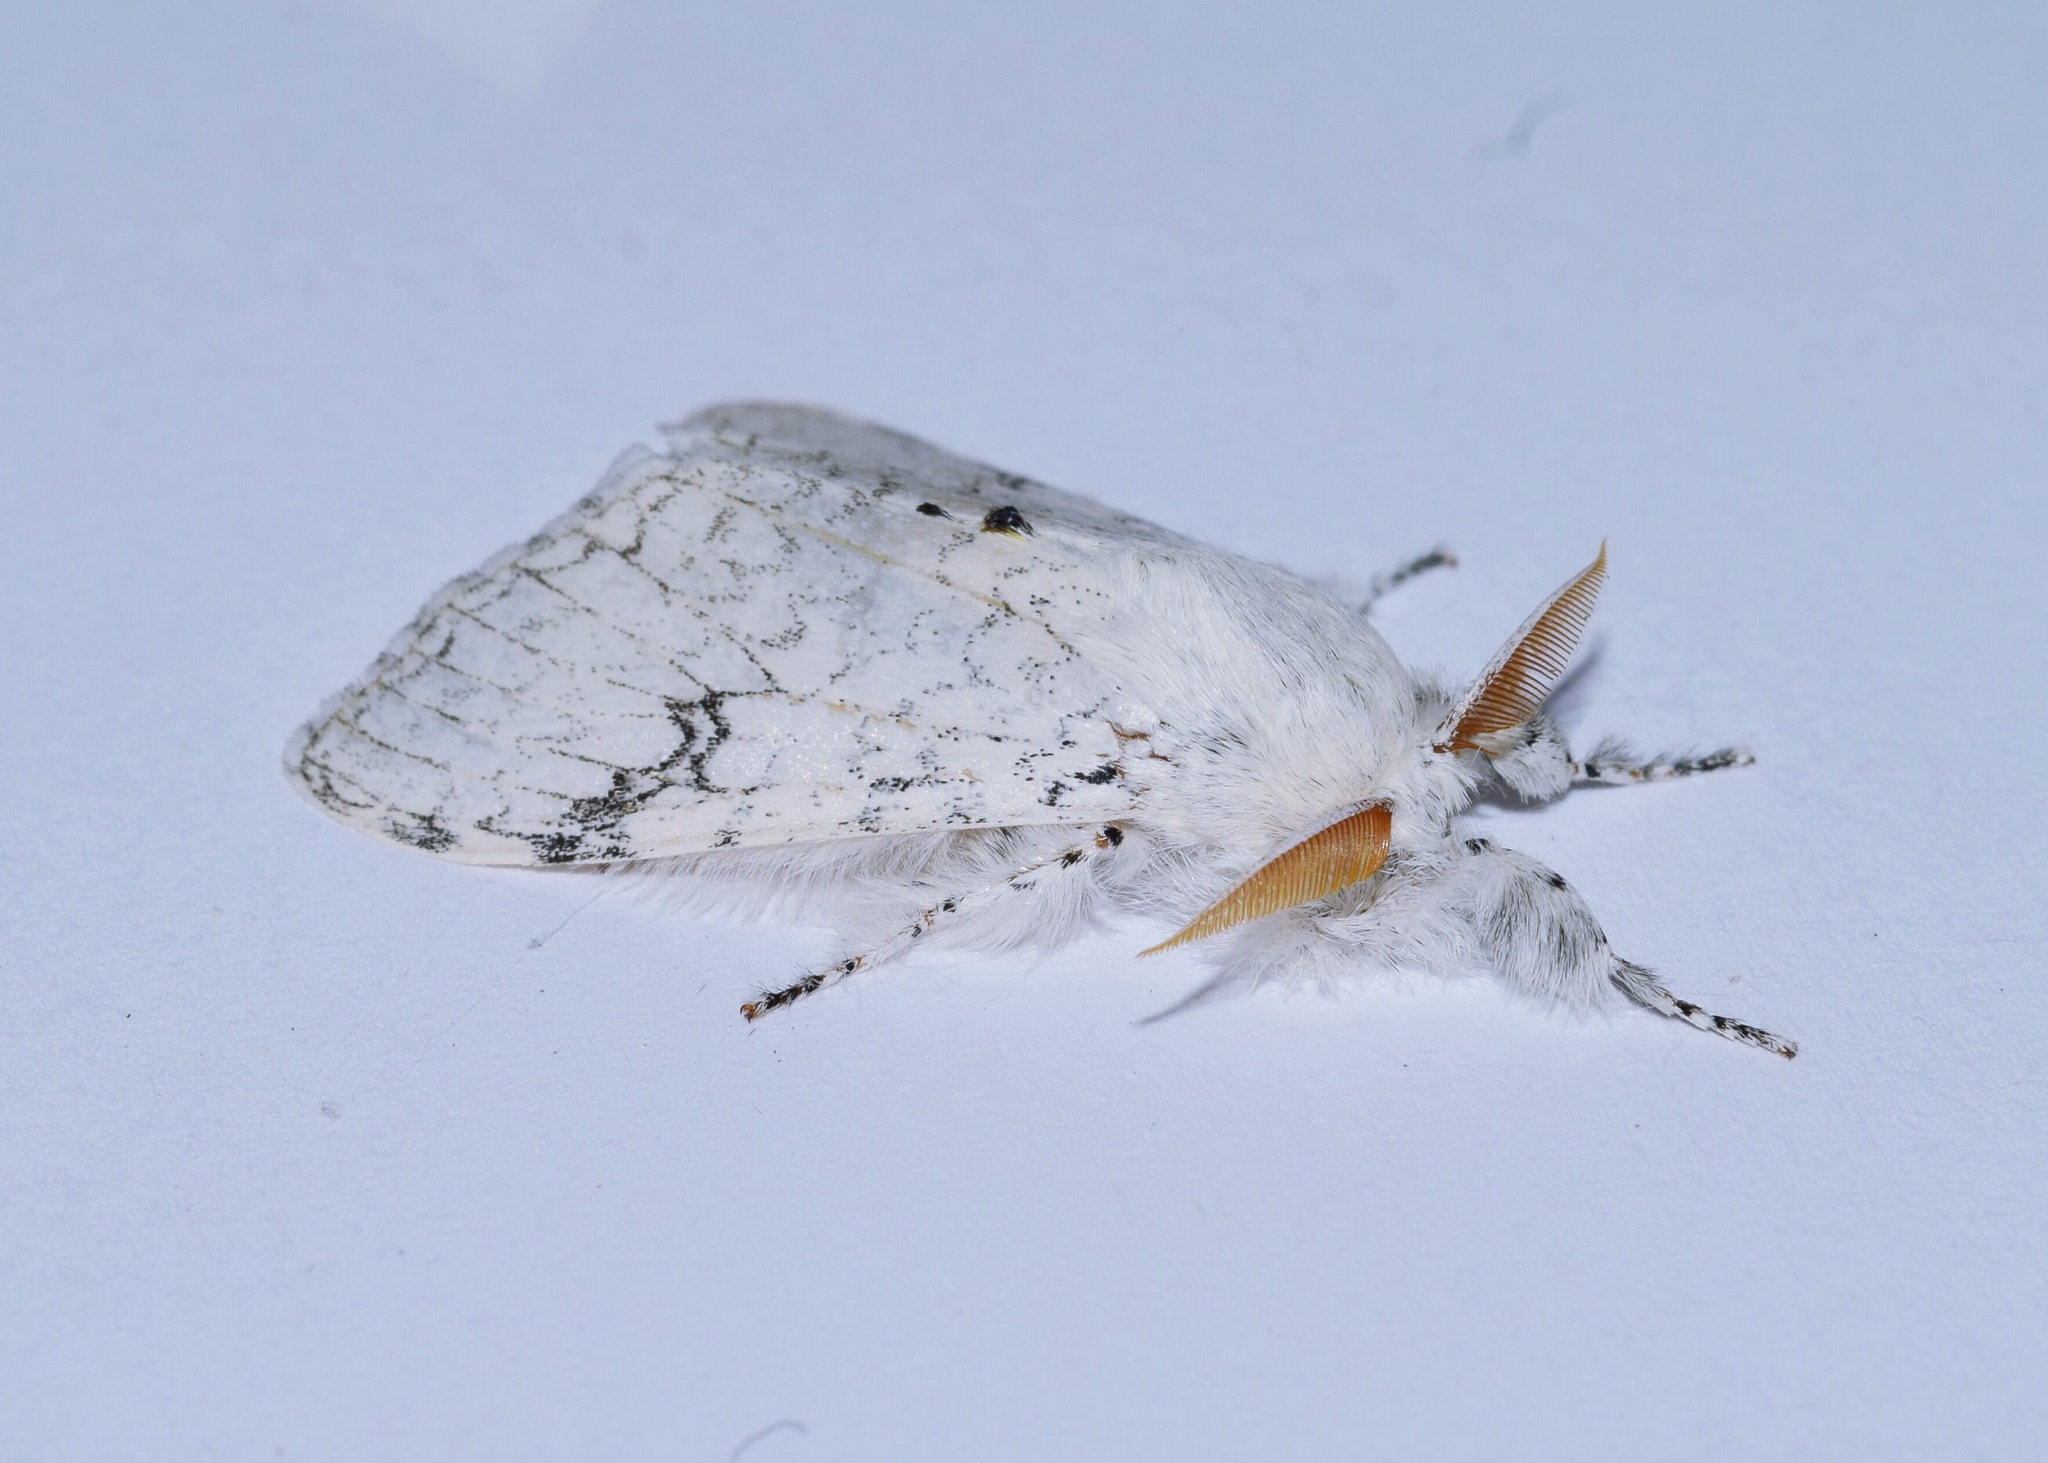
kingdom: Animalia
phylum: Arthropoda
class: Insecta
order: Lepidoptera
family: Erebidae
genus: Dasychira
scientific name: Dasychira georgiana
